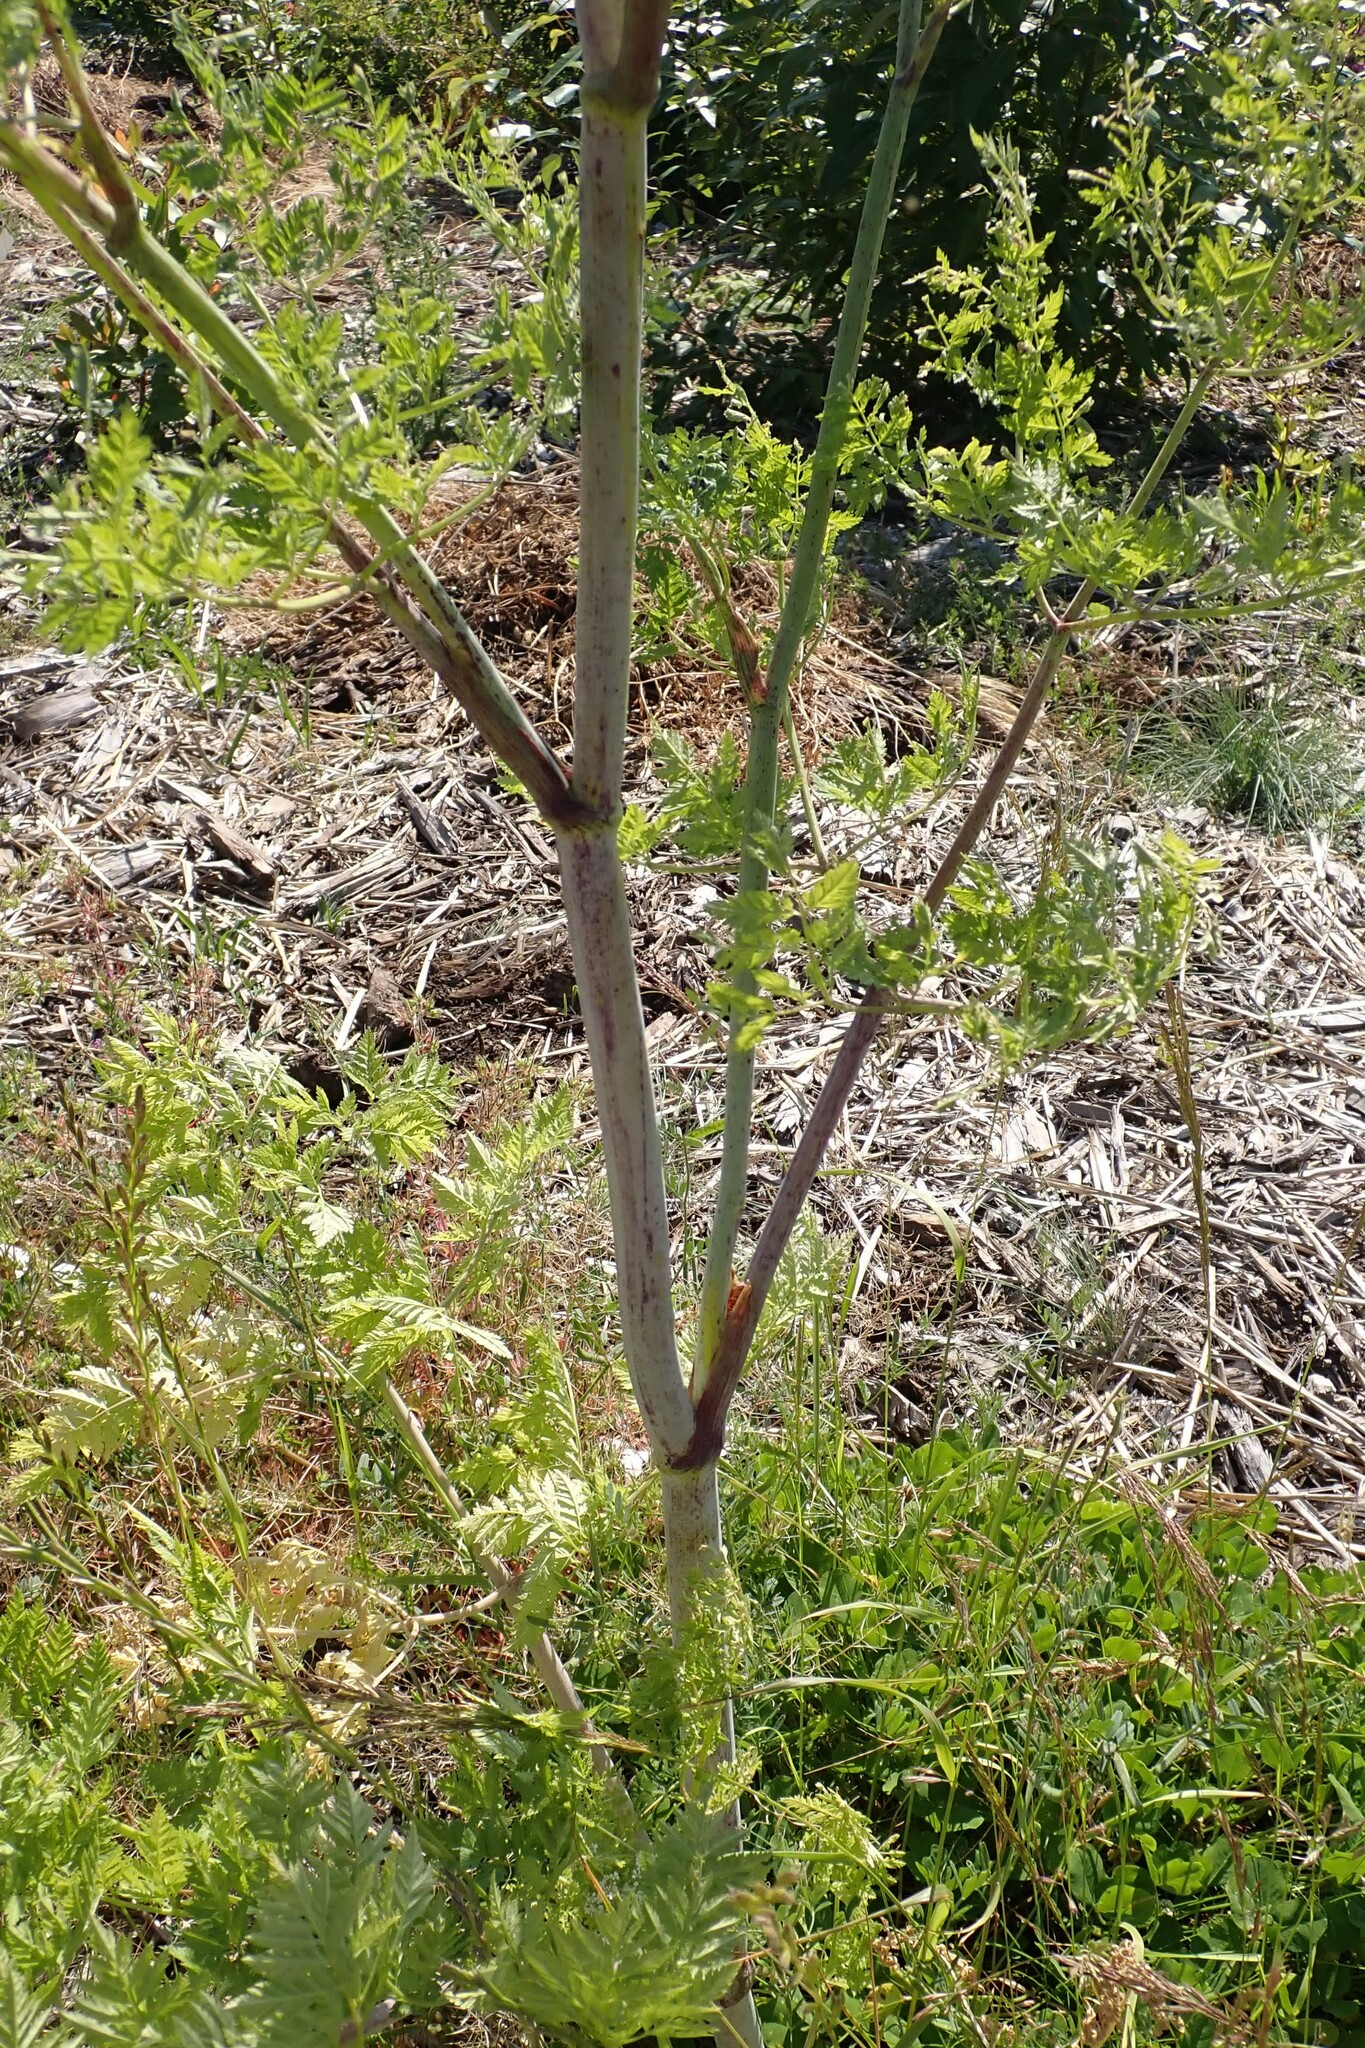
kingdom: Plantae
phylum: Tracheophyta
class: Magnoliopsida
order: Apiales
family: Apiaceae
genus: Conium
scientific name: Conium maculatum
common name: Hemlock
